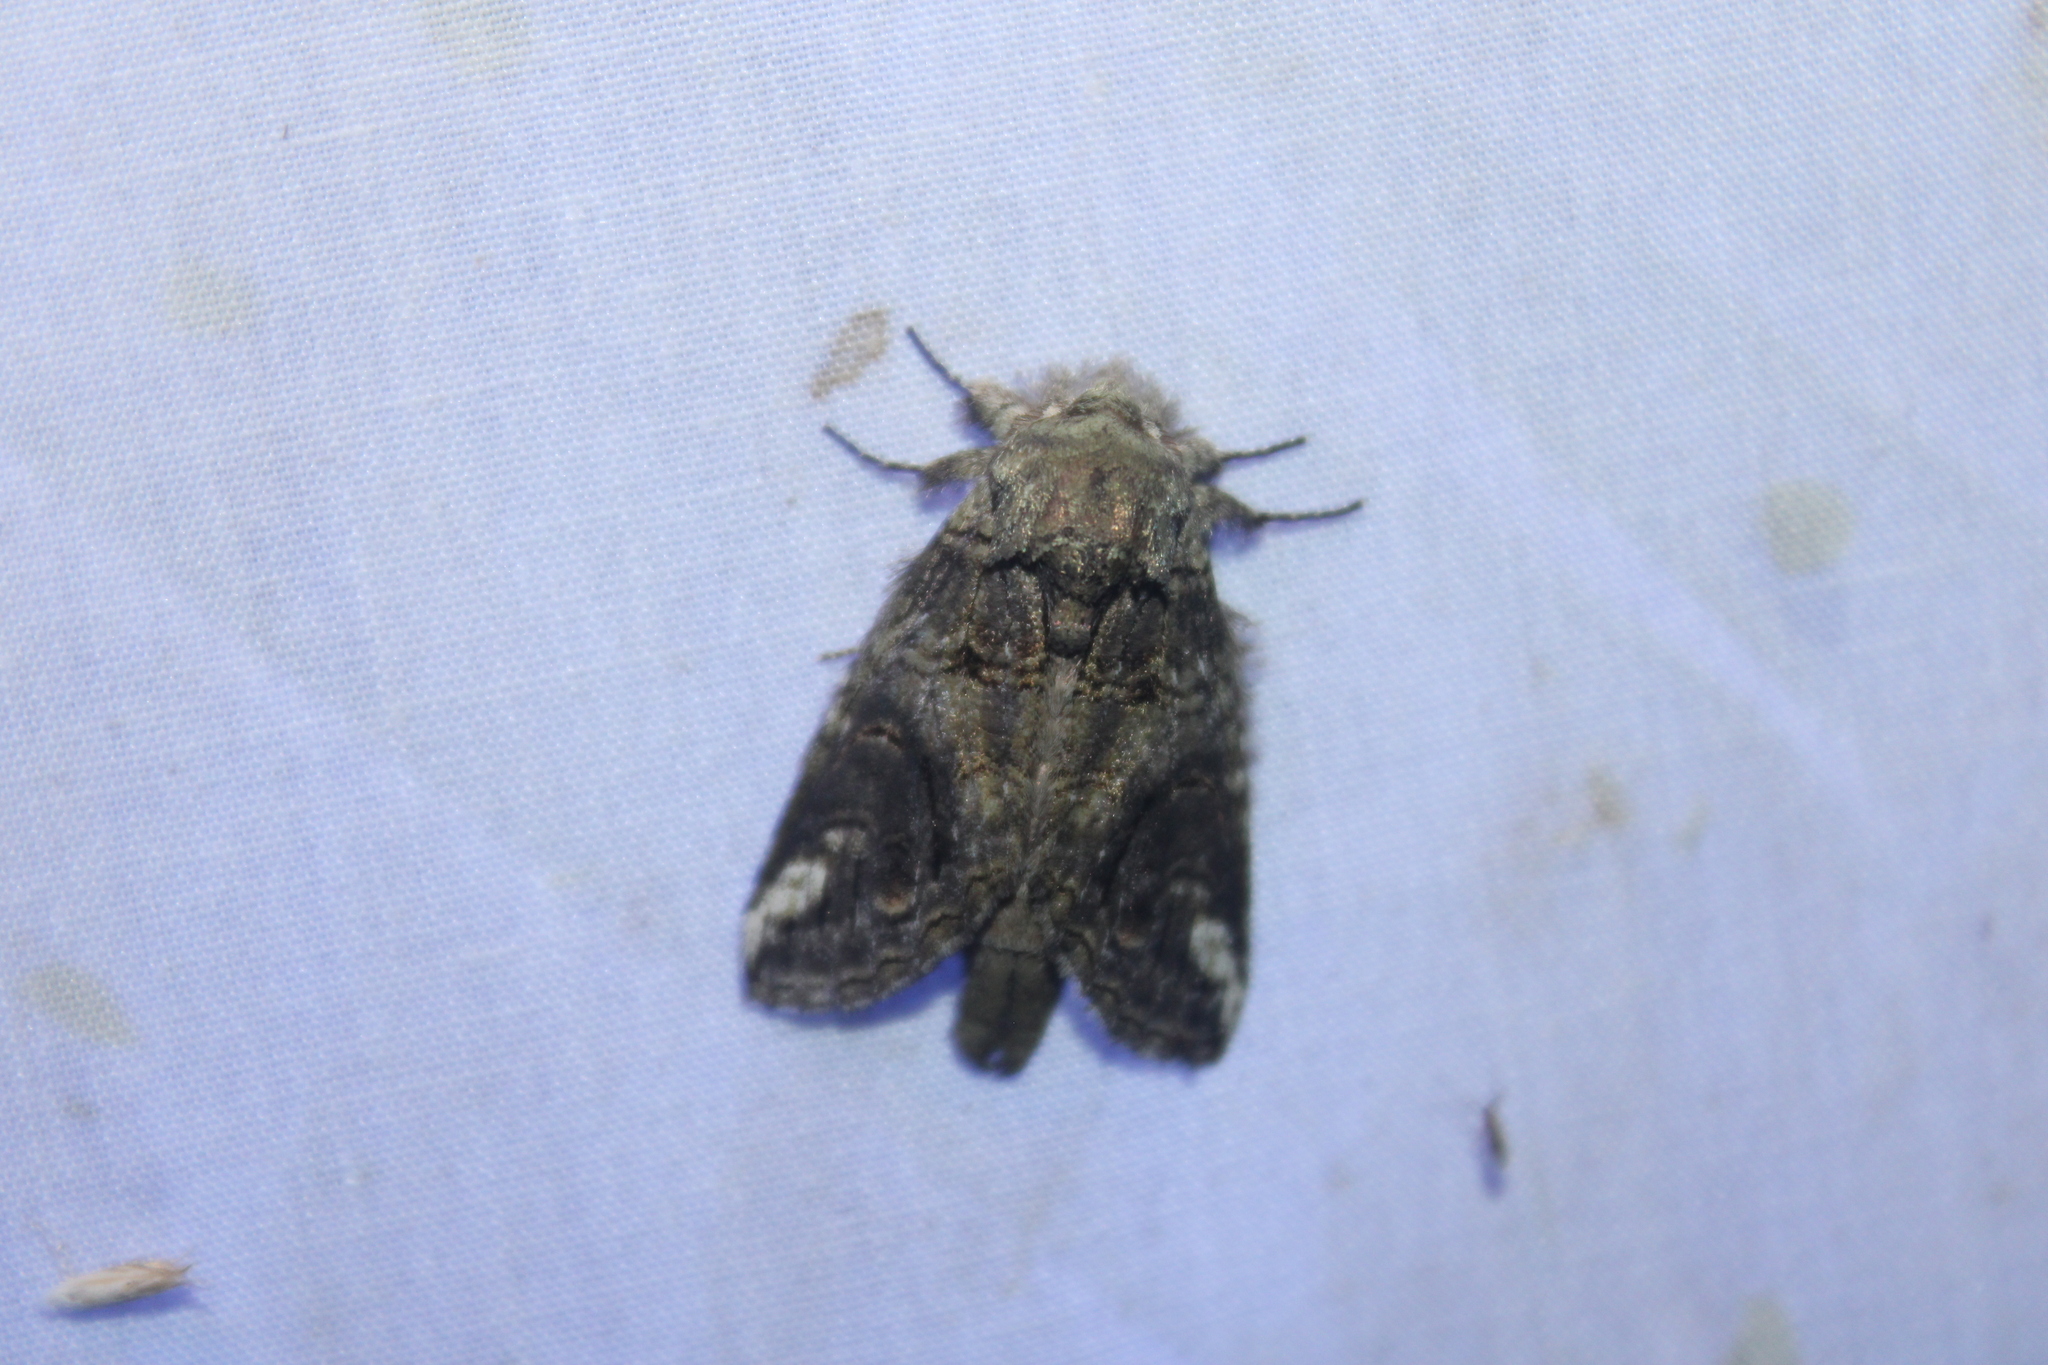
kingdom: Animalia
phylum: Arthropoda
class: Insecta
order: Lepidoptera
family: Notodontidae
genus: Heterocampa
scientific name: Heterocampa obliqua
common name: Oblique heterocampa
